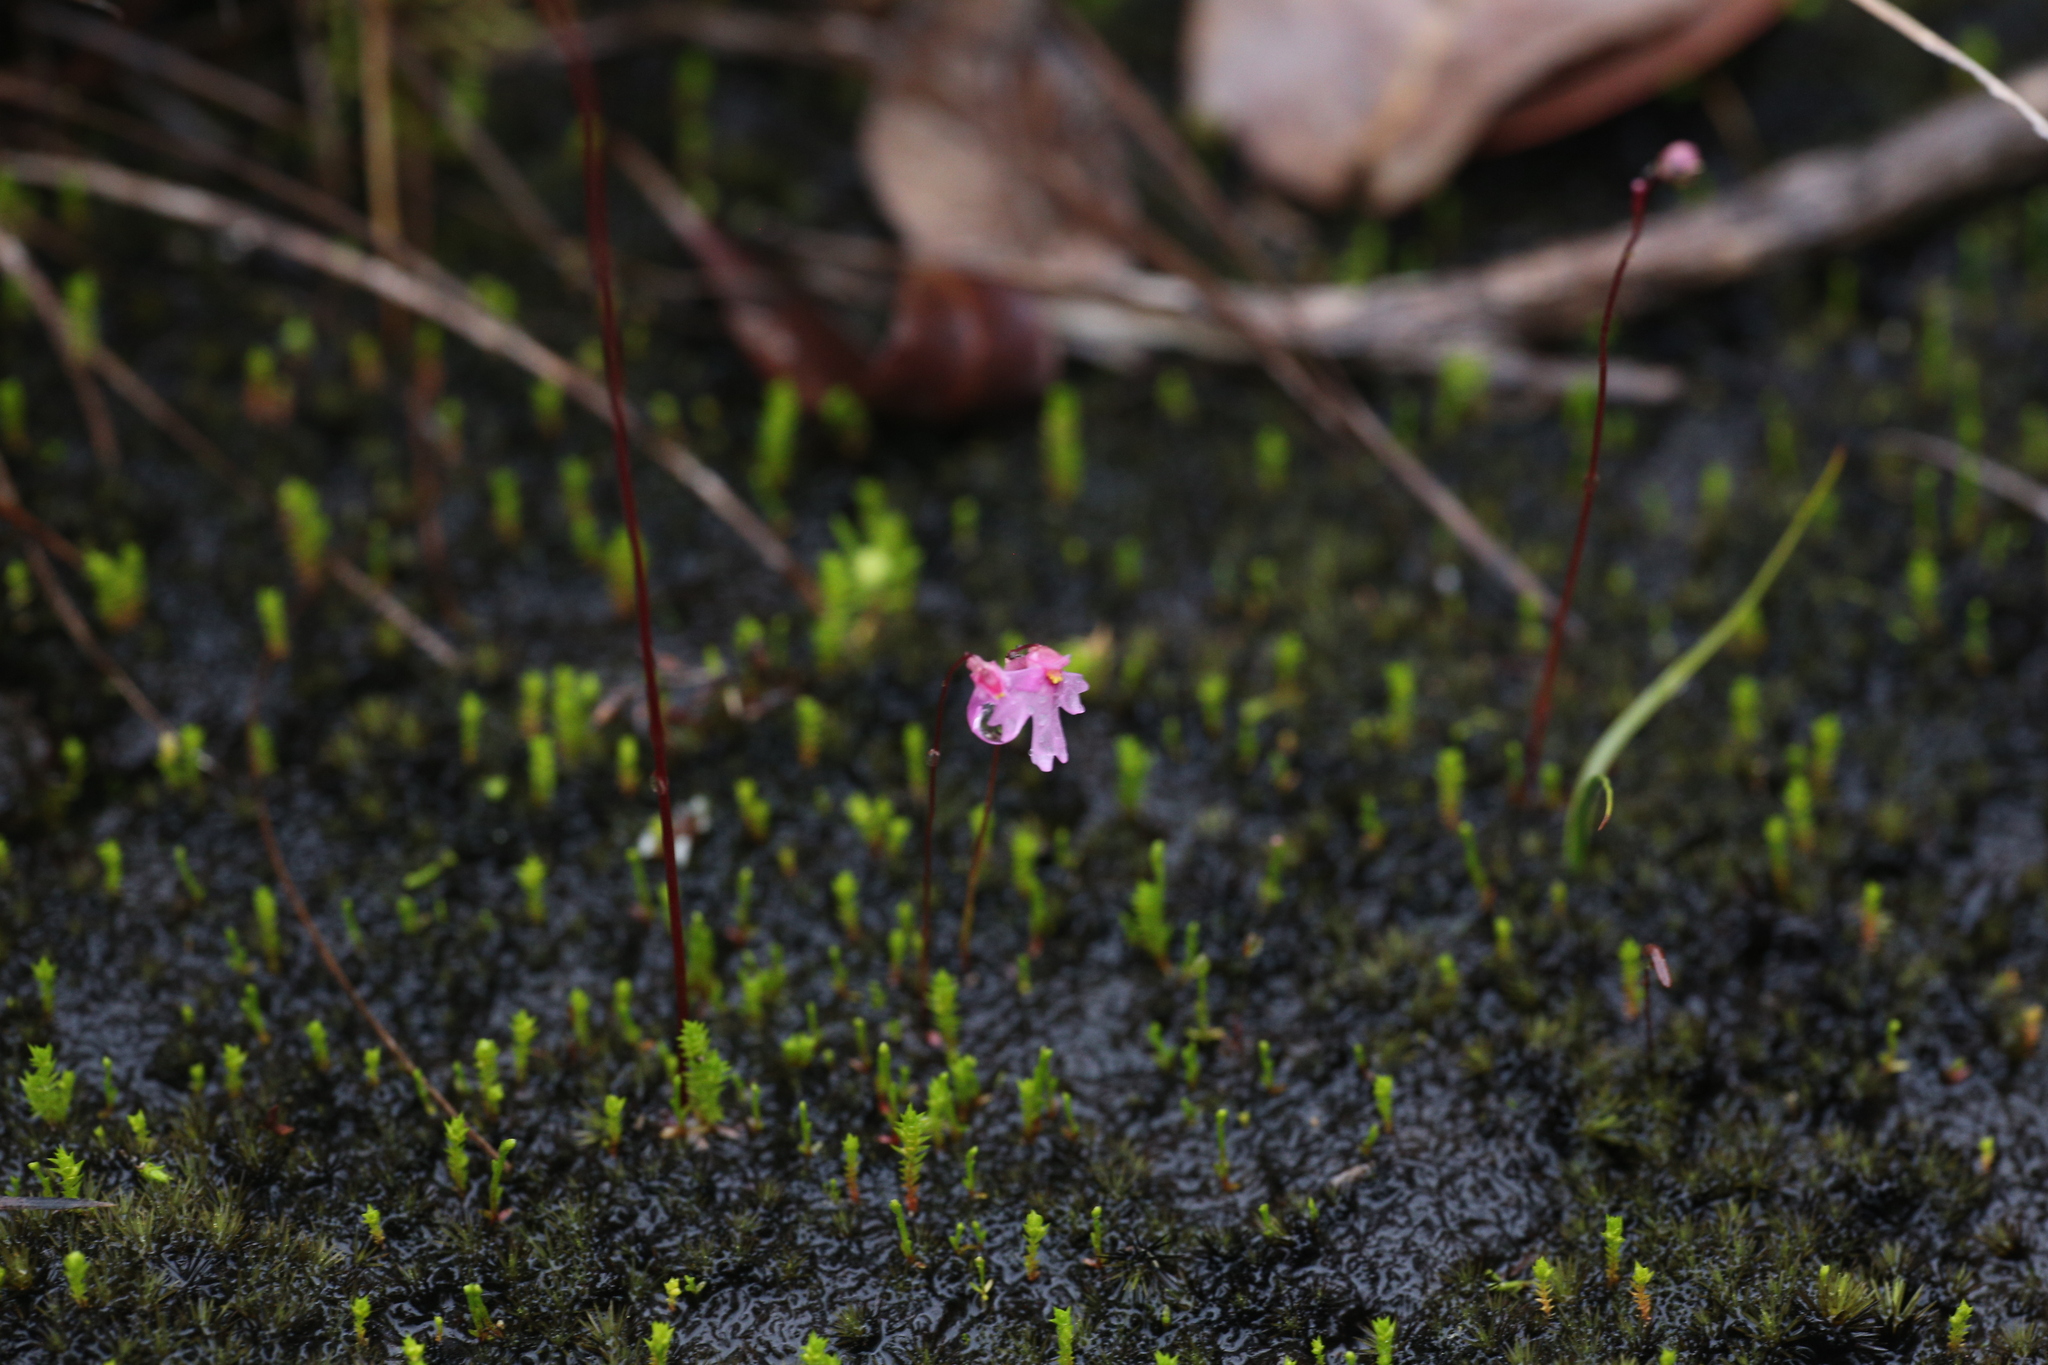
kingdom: Plantae
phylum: Tracheophyta
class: Magnoliopsida
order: Lamiales
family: Lentibulariaceae
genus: Utricularia
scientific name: Utricularia multifida
